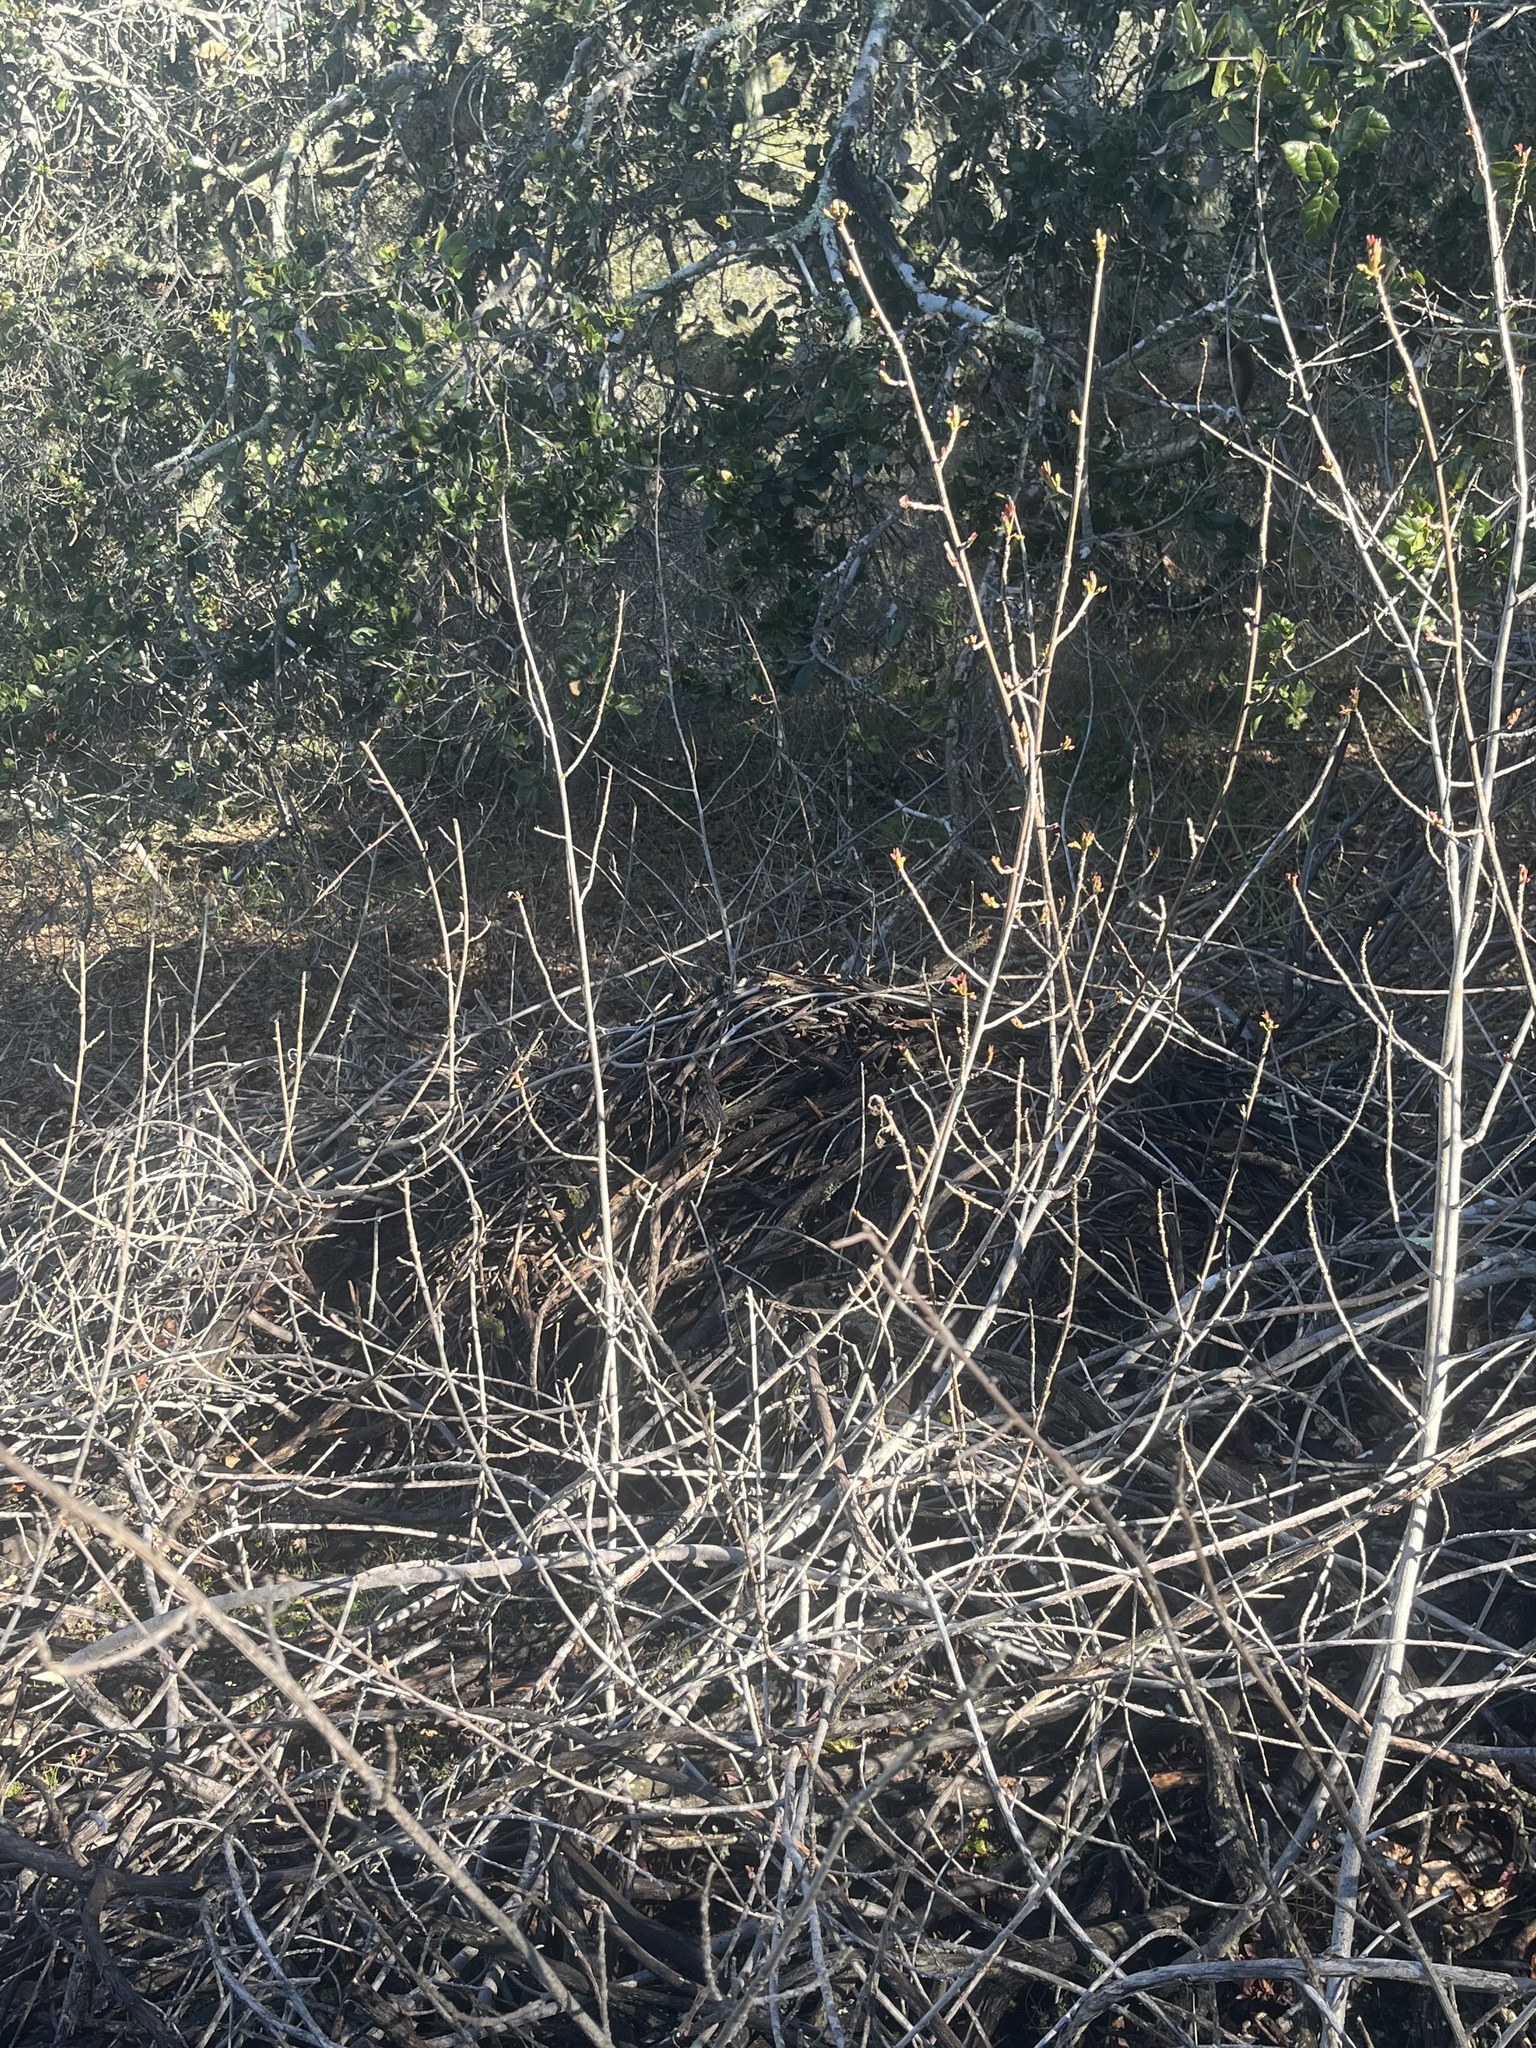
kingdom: Animalia
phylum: Chordata
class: Mammalia
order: Rodentia
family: Cricetidae
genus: Neotoma
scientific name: Neotoma fuscipes
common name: Dusky-footed woodrat
